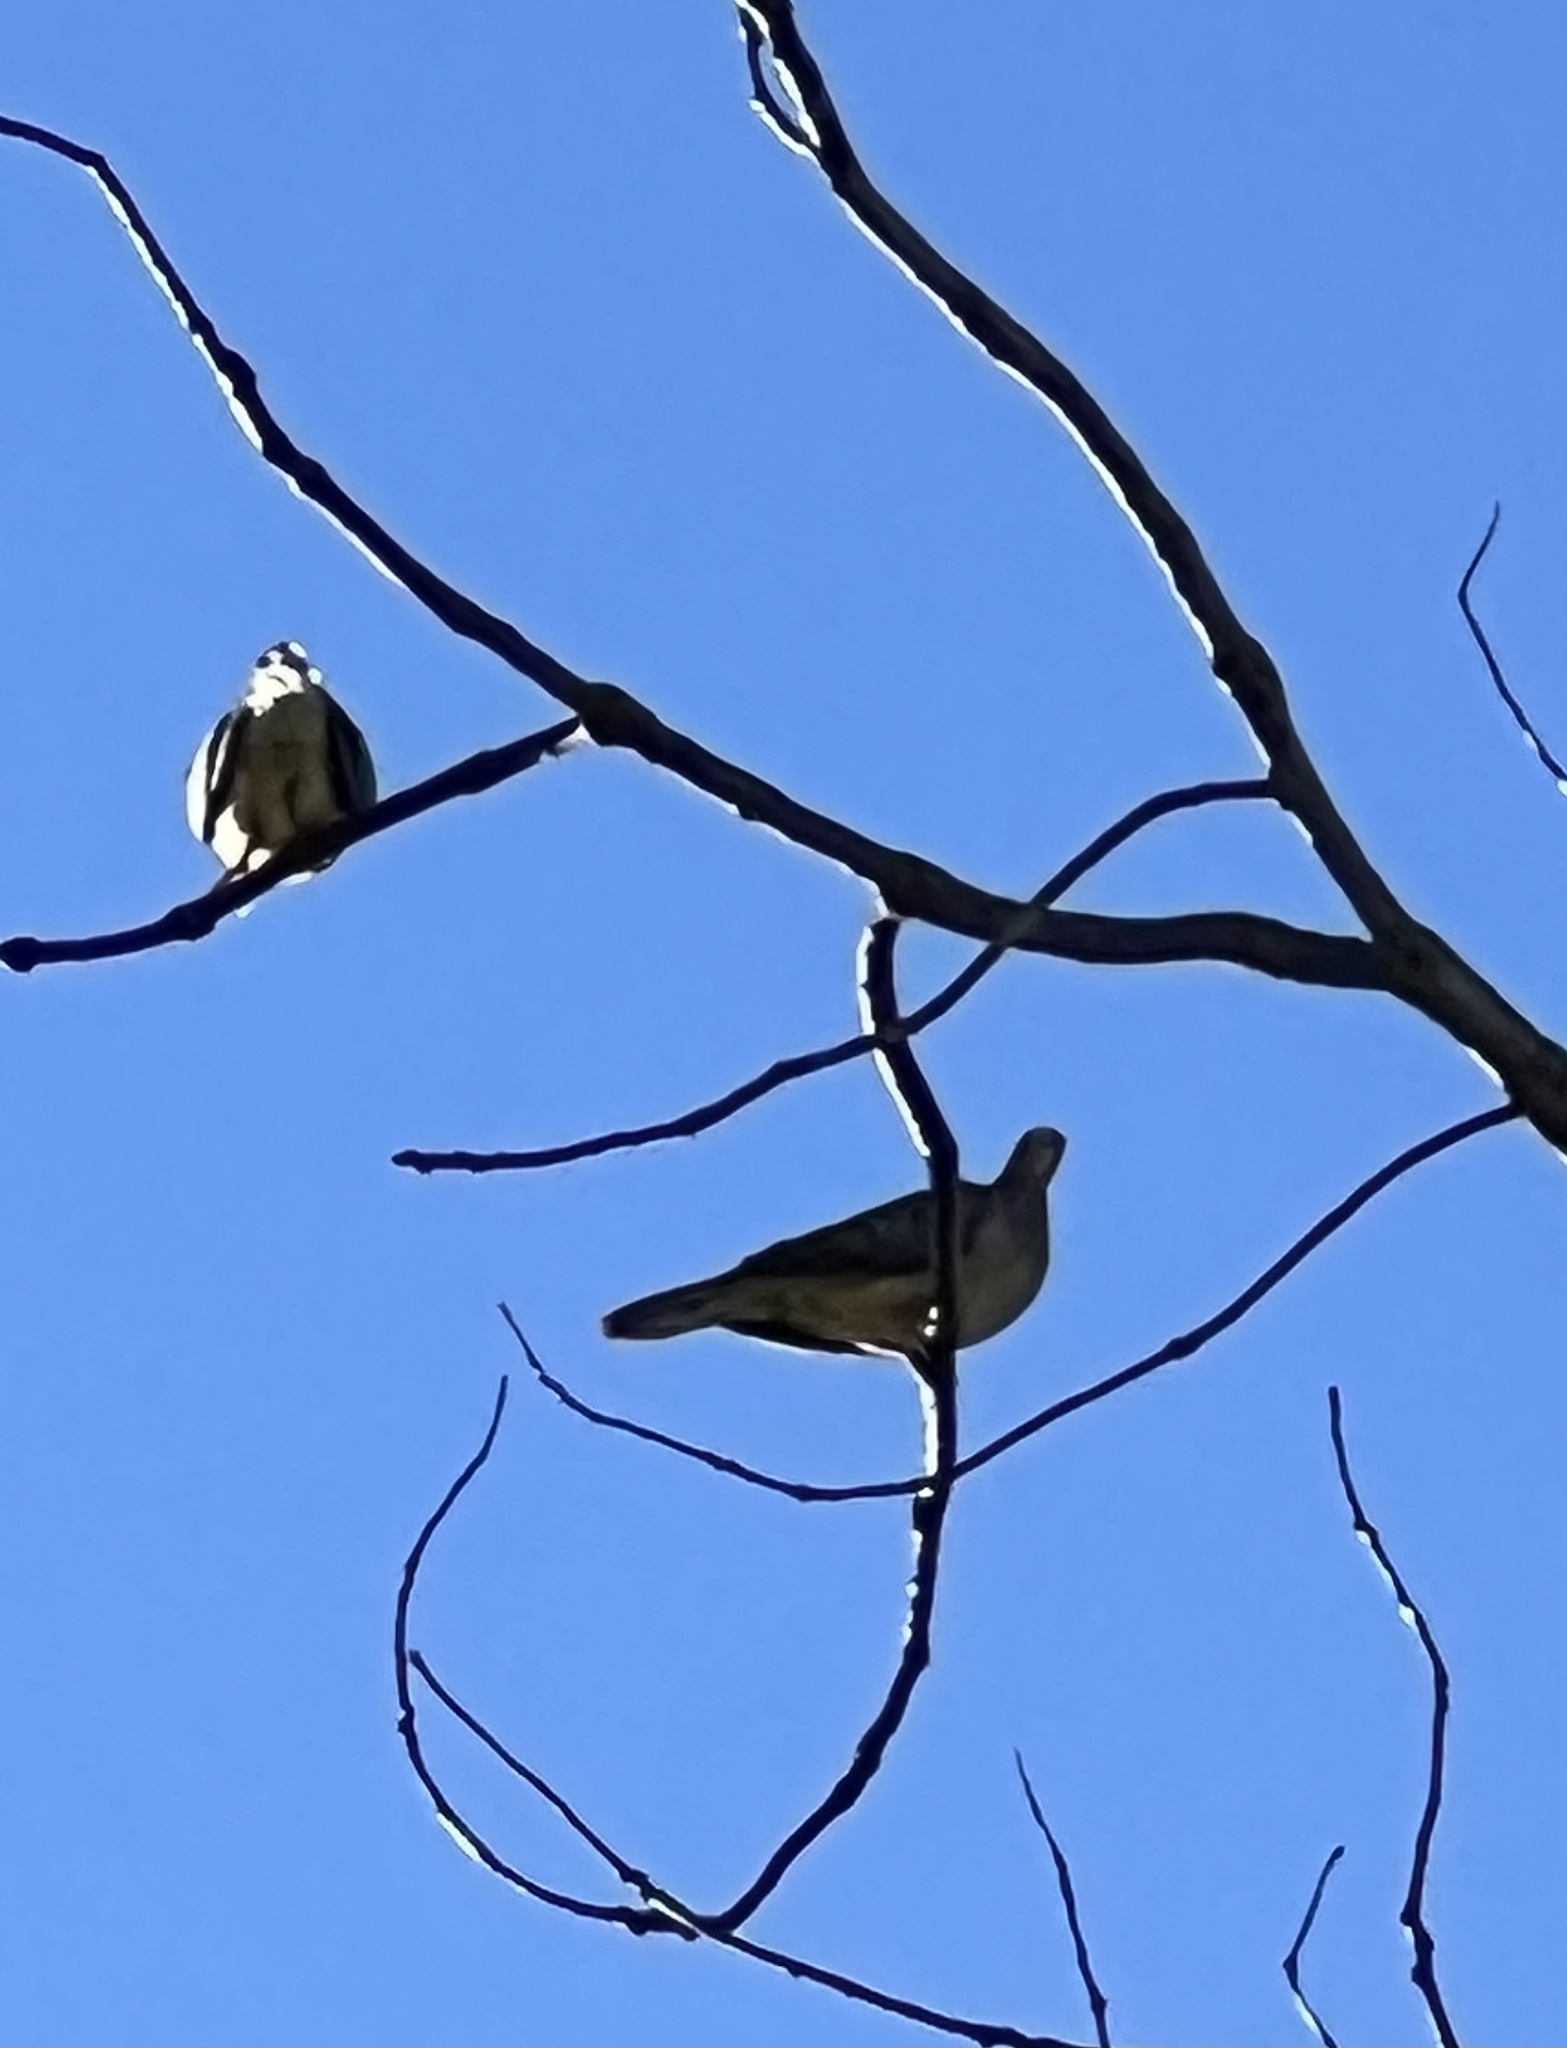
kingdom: Animalia
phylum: Chordata
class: Aves
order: Columbiformes
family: Columbidae
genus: Zenaida
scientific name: Zenaida macroura
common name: Mourning dove
